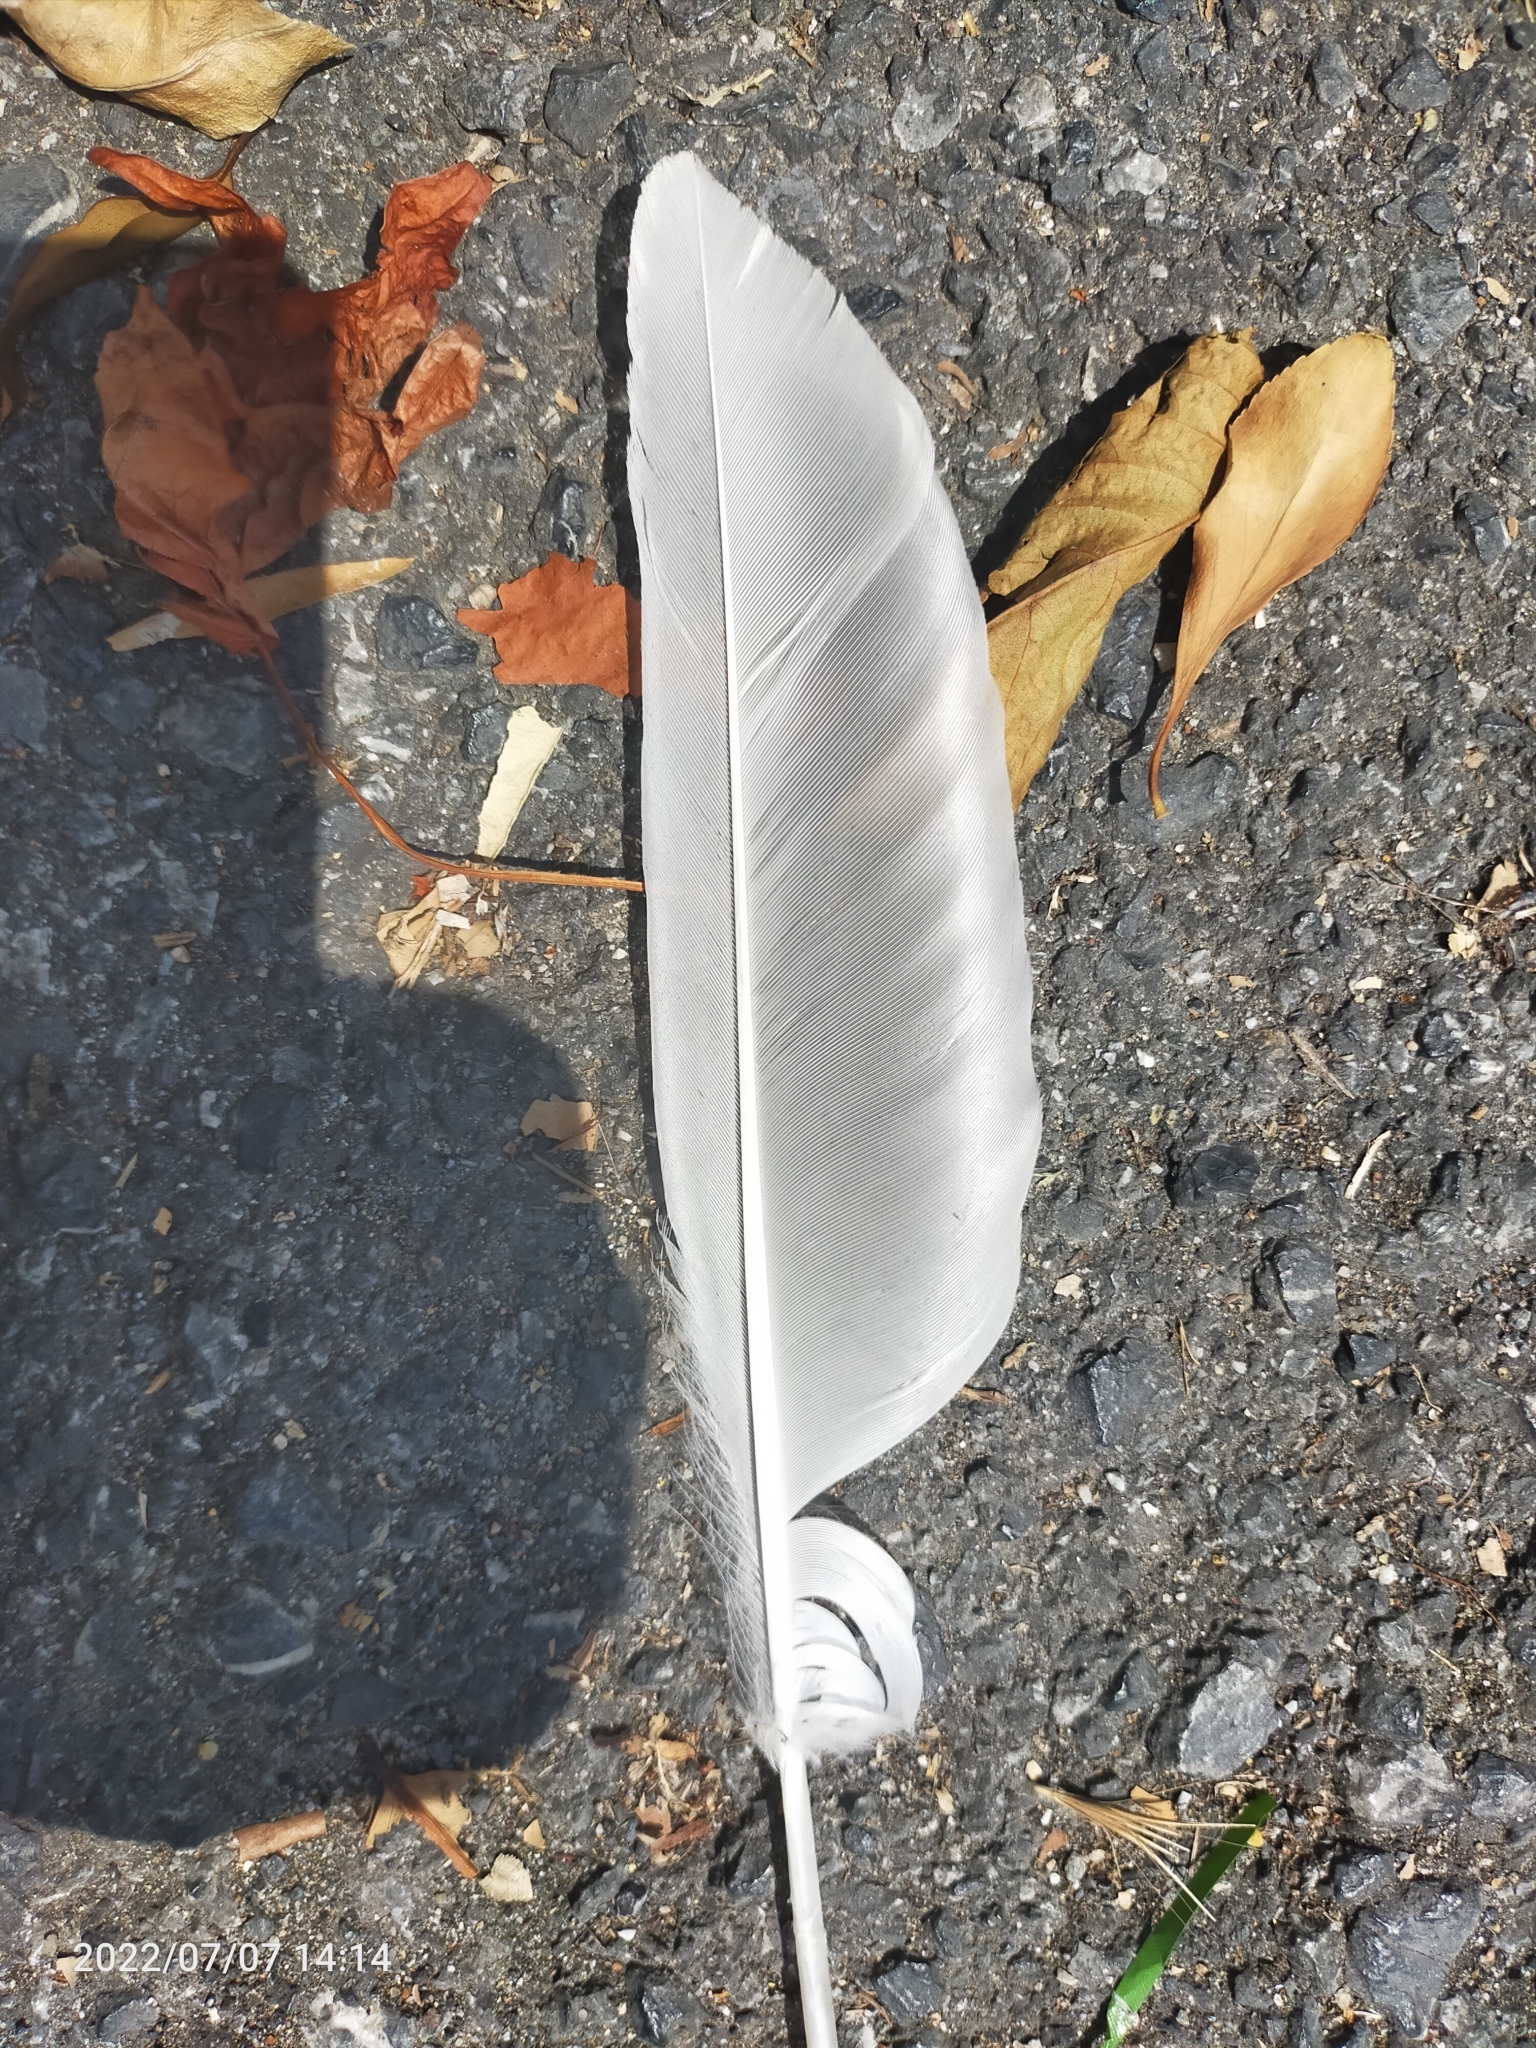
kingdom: Animalia
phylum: Chordata
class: Aves
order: Charadriiformes
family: Laridae
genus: Larus
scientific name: Larus michahellis
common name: Yellow-legged gull
